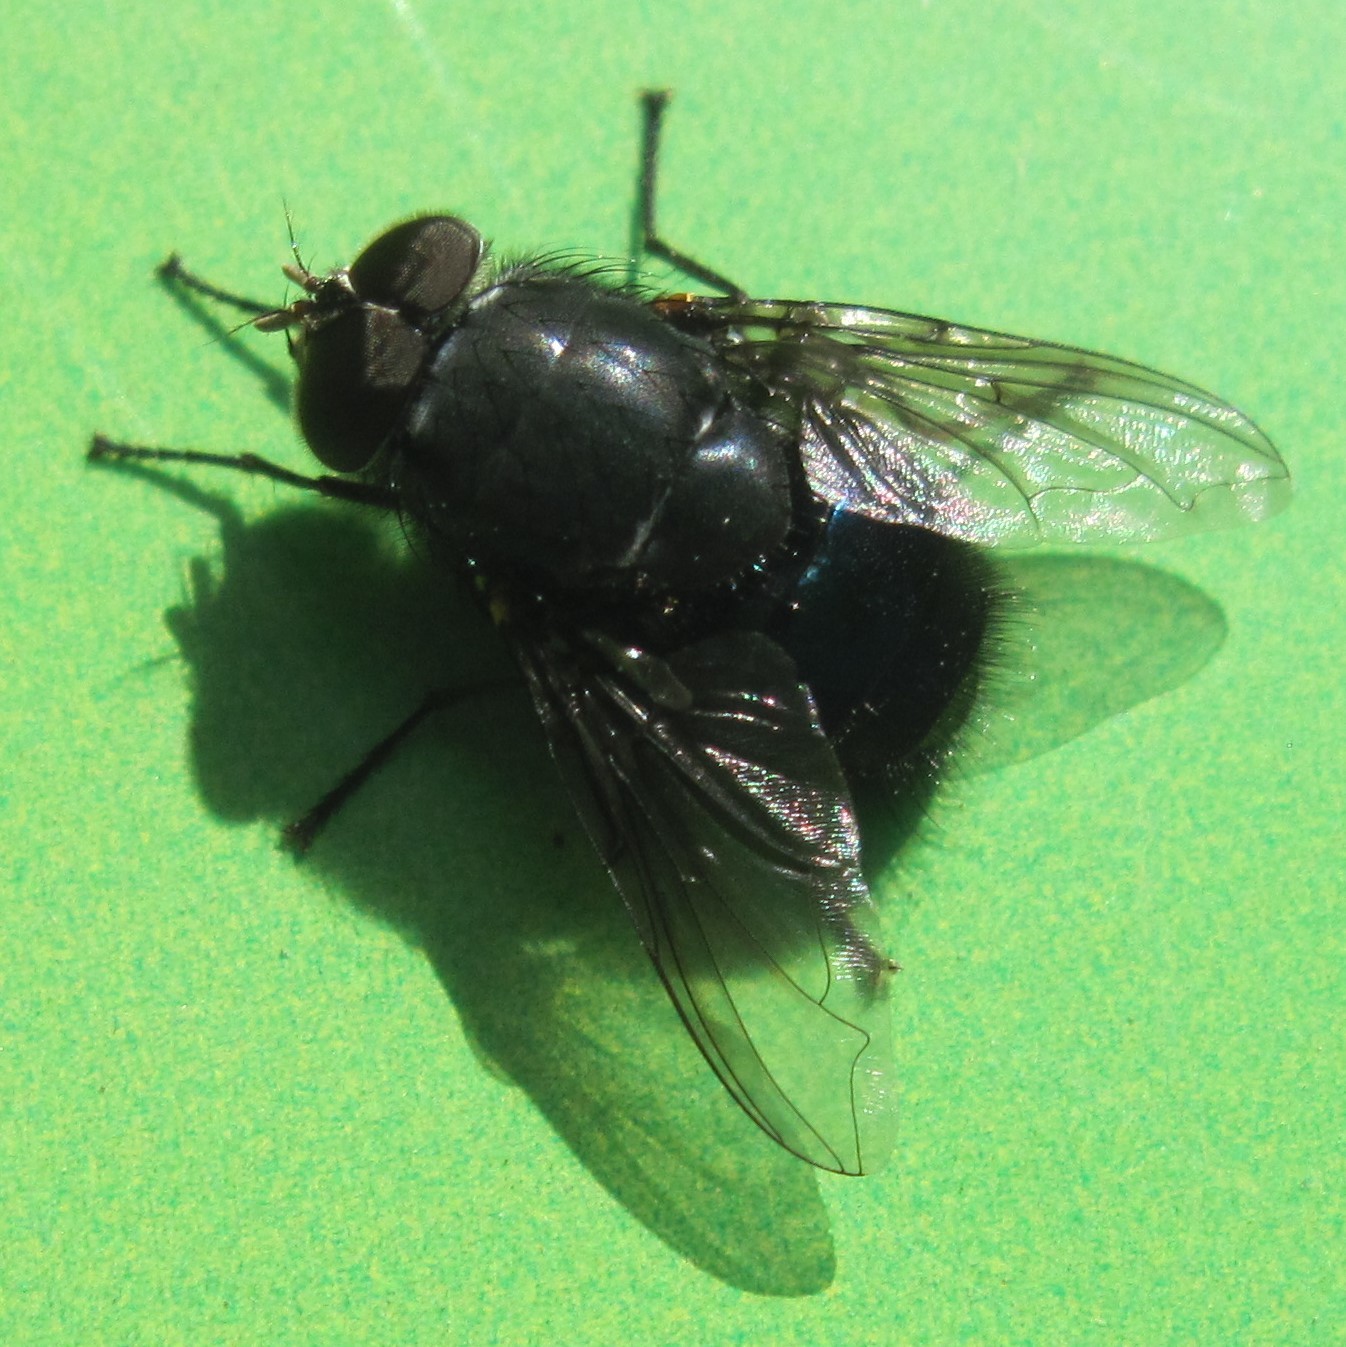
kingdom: Animalia
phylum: Arthropoda
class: Insecta
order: Diptera
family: Calliphoridae
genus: Calliphora
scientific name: Calliphora quadrimaculata
